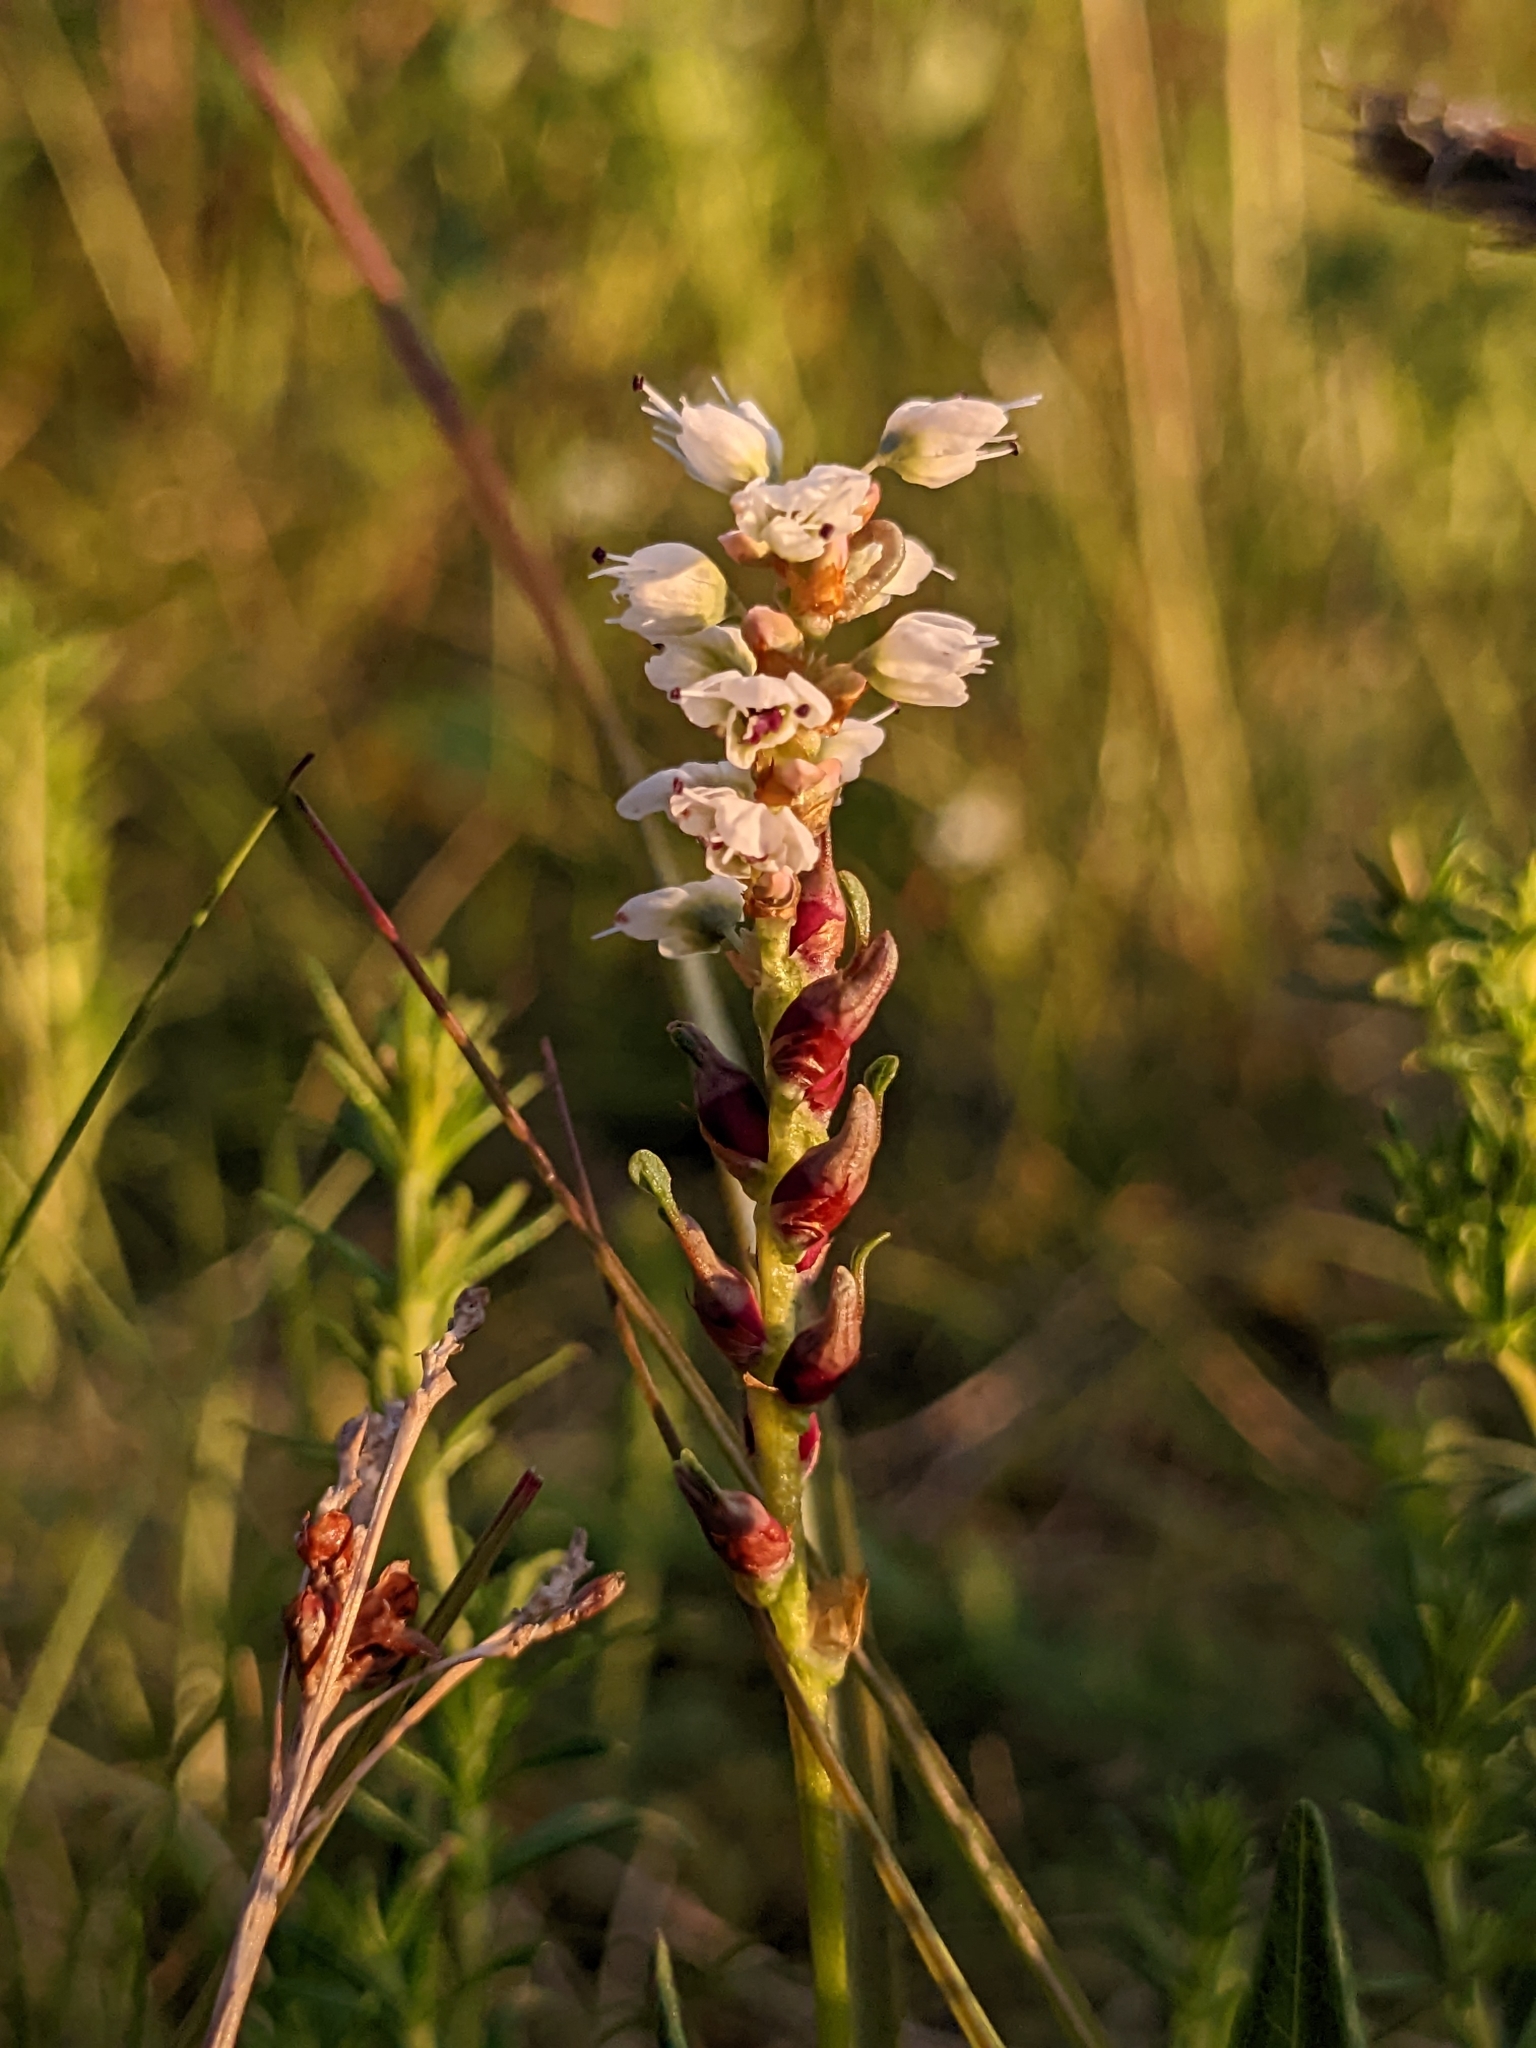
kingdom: Plantae
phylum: Tracheophyta
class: Magnoliopsida
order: Caryophyllales
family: Polygonaceae
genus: Bistorta
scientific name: Bistorta vivipara
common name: Alpine bistort
